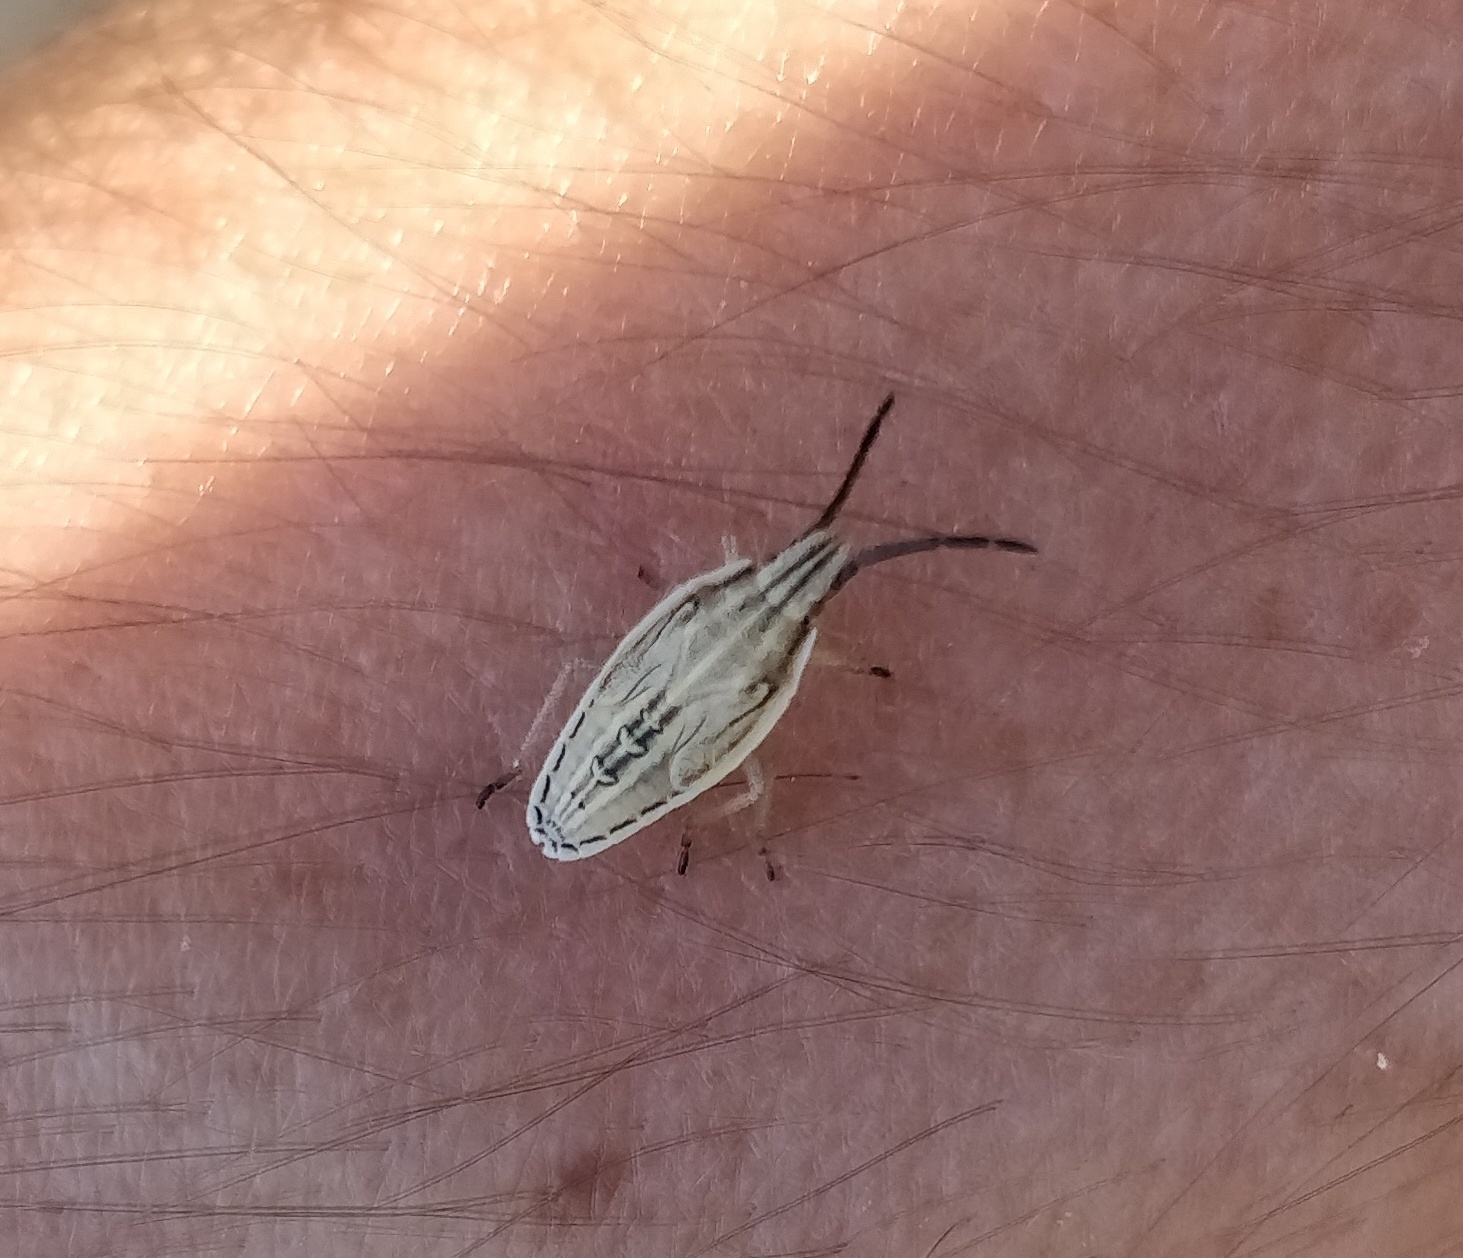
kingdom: Animalia
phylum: Arthropoda
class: Insecta
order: Hemiptera
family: Pentatomidae
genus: Mecidea
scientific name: Mecidea lindbergi
